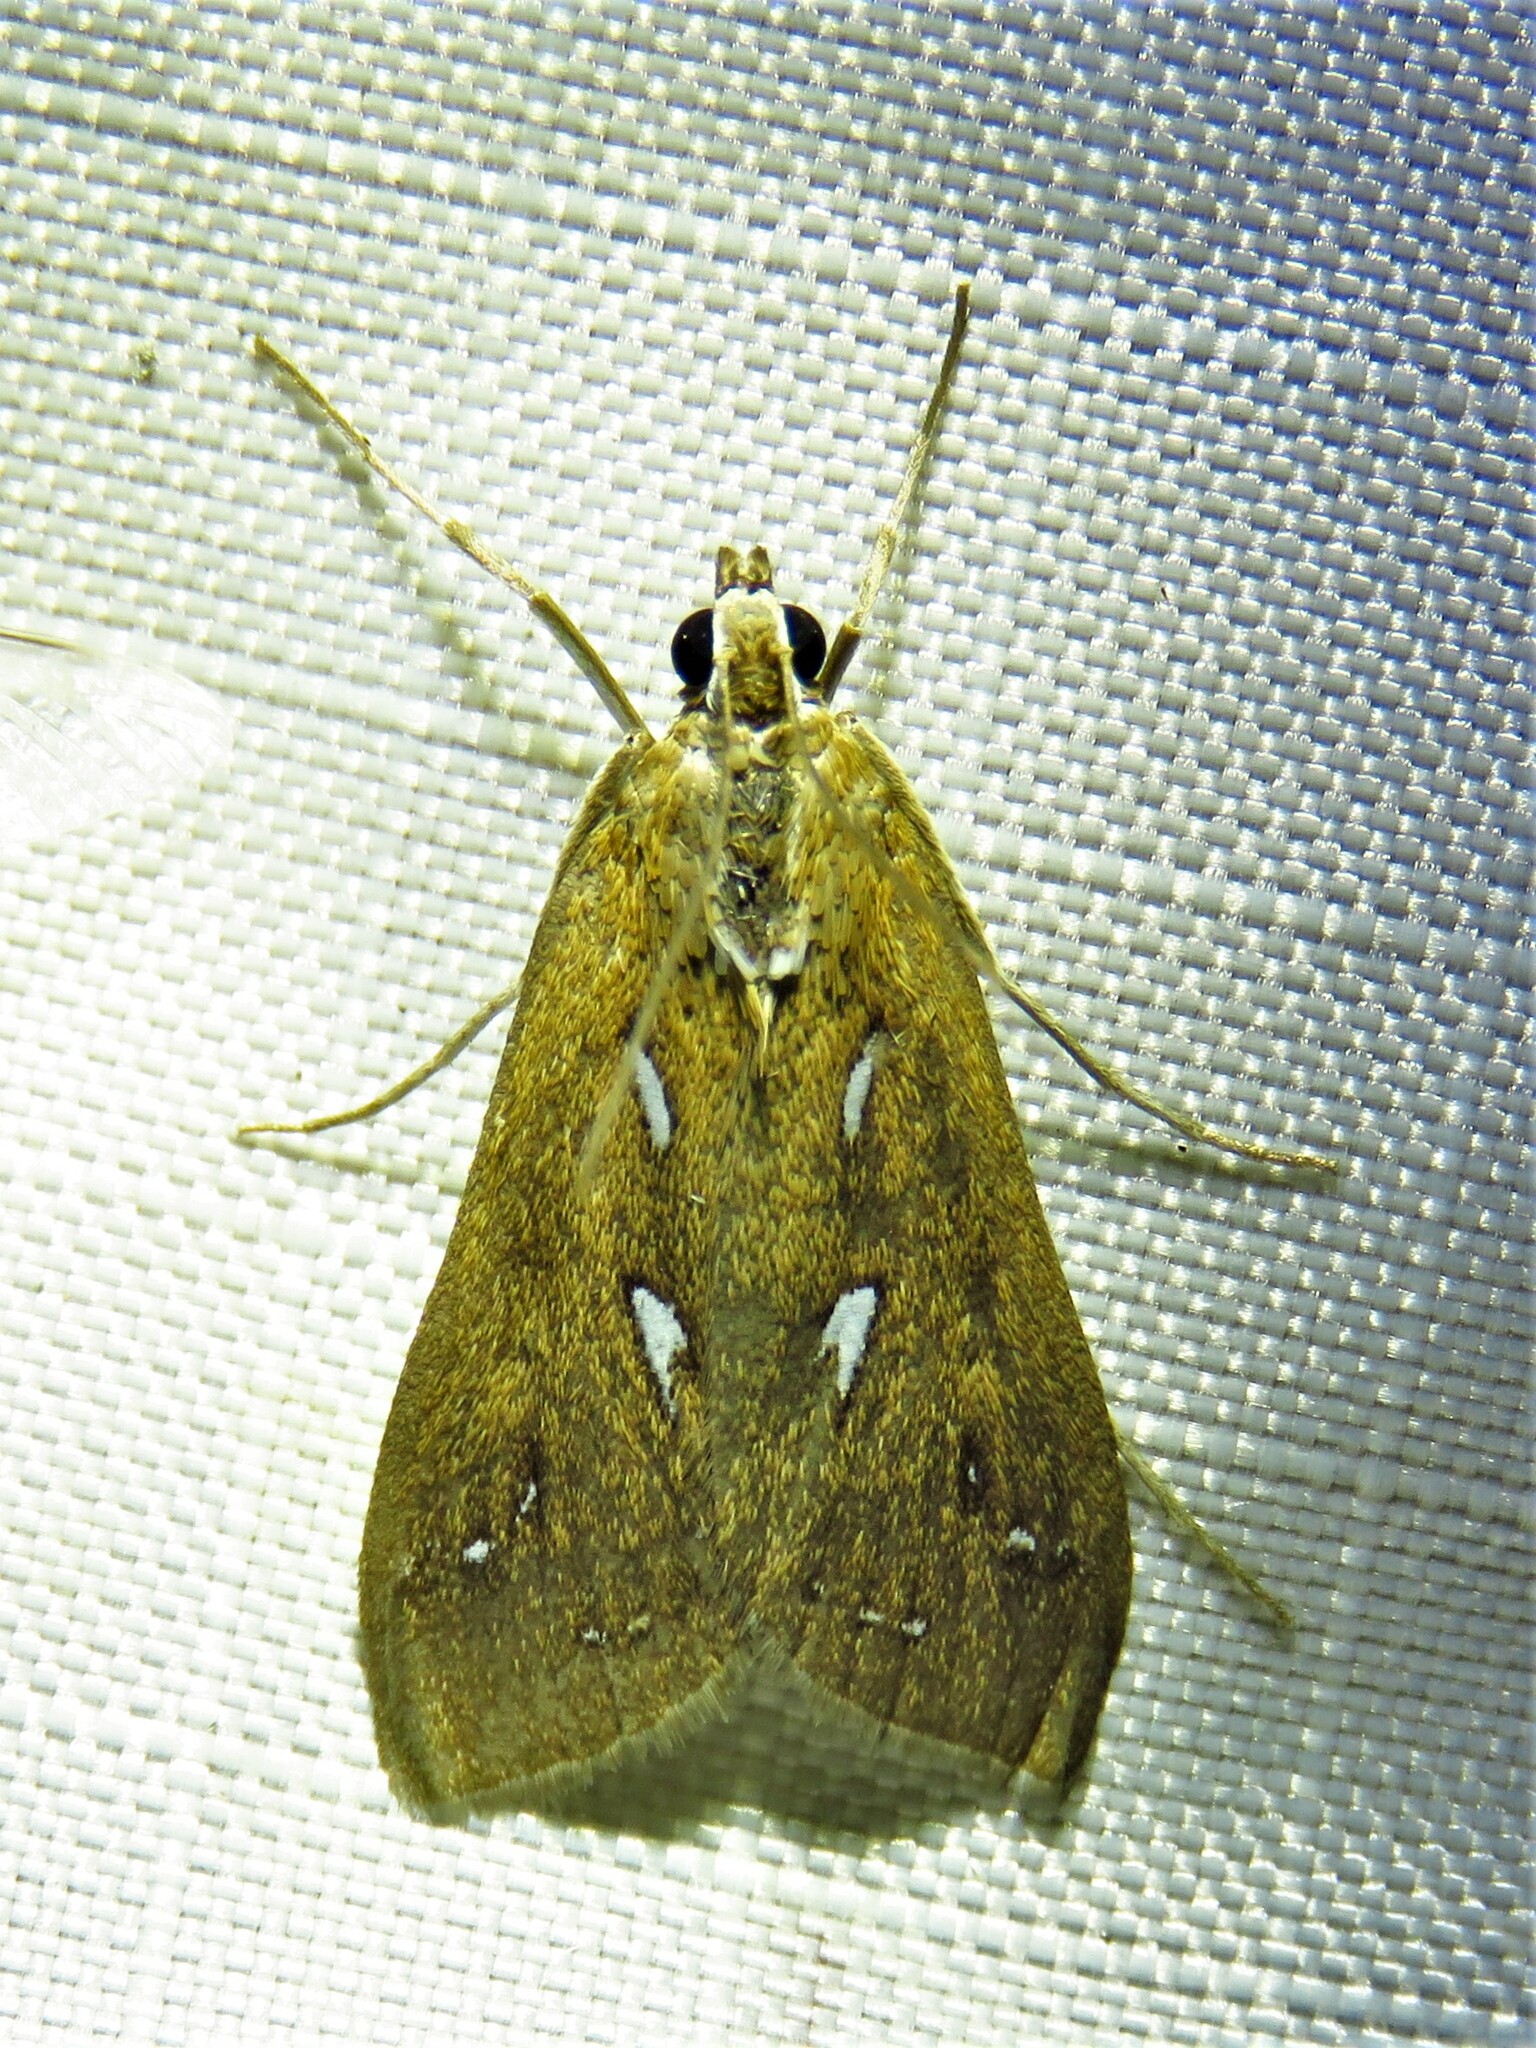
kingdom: Animalia
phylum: Arthropoda
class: Insecta
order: Lepidoptera
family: Crambidae
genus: Diastictis
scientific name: Diastictis fracturalis
